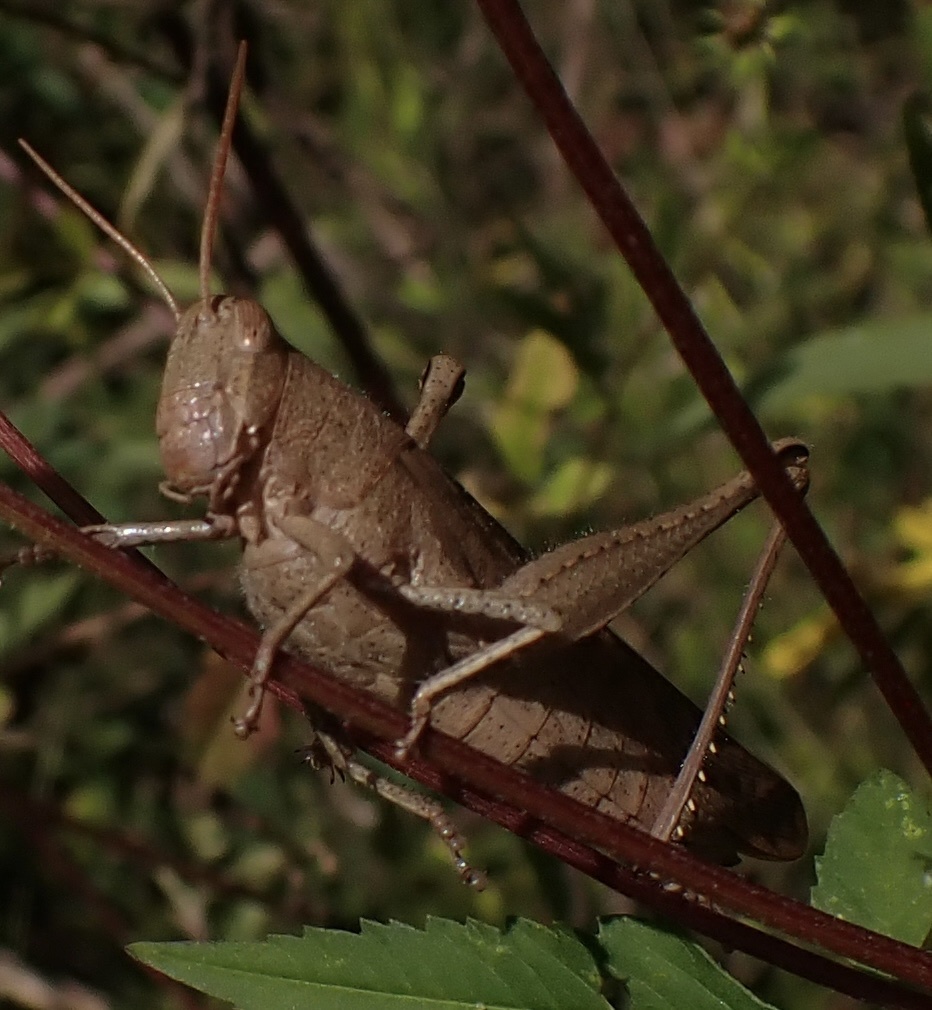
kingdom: Animalia
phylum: Arthropoda
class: Insecta
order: Orthoptera
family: Acrididae
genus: Schistocerca
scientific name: Schistocerca damnifica
